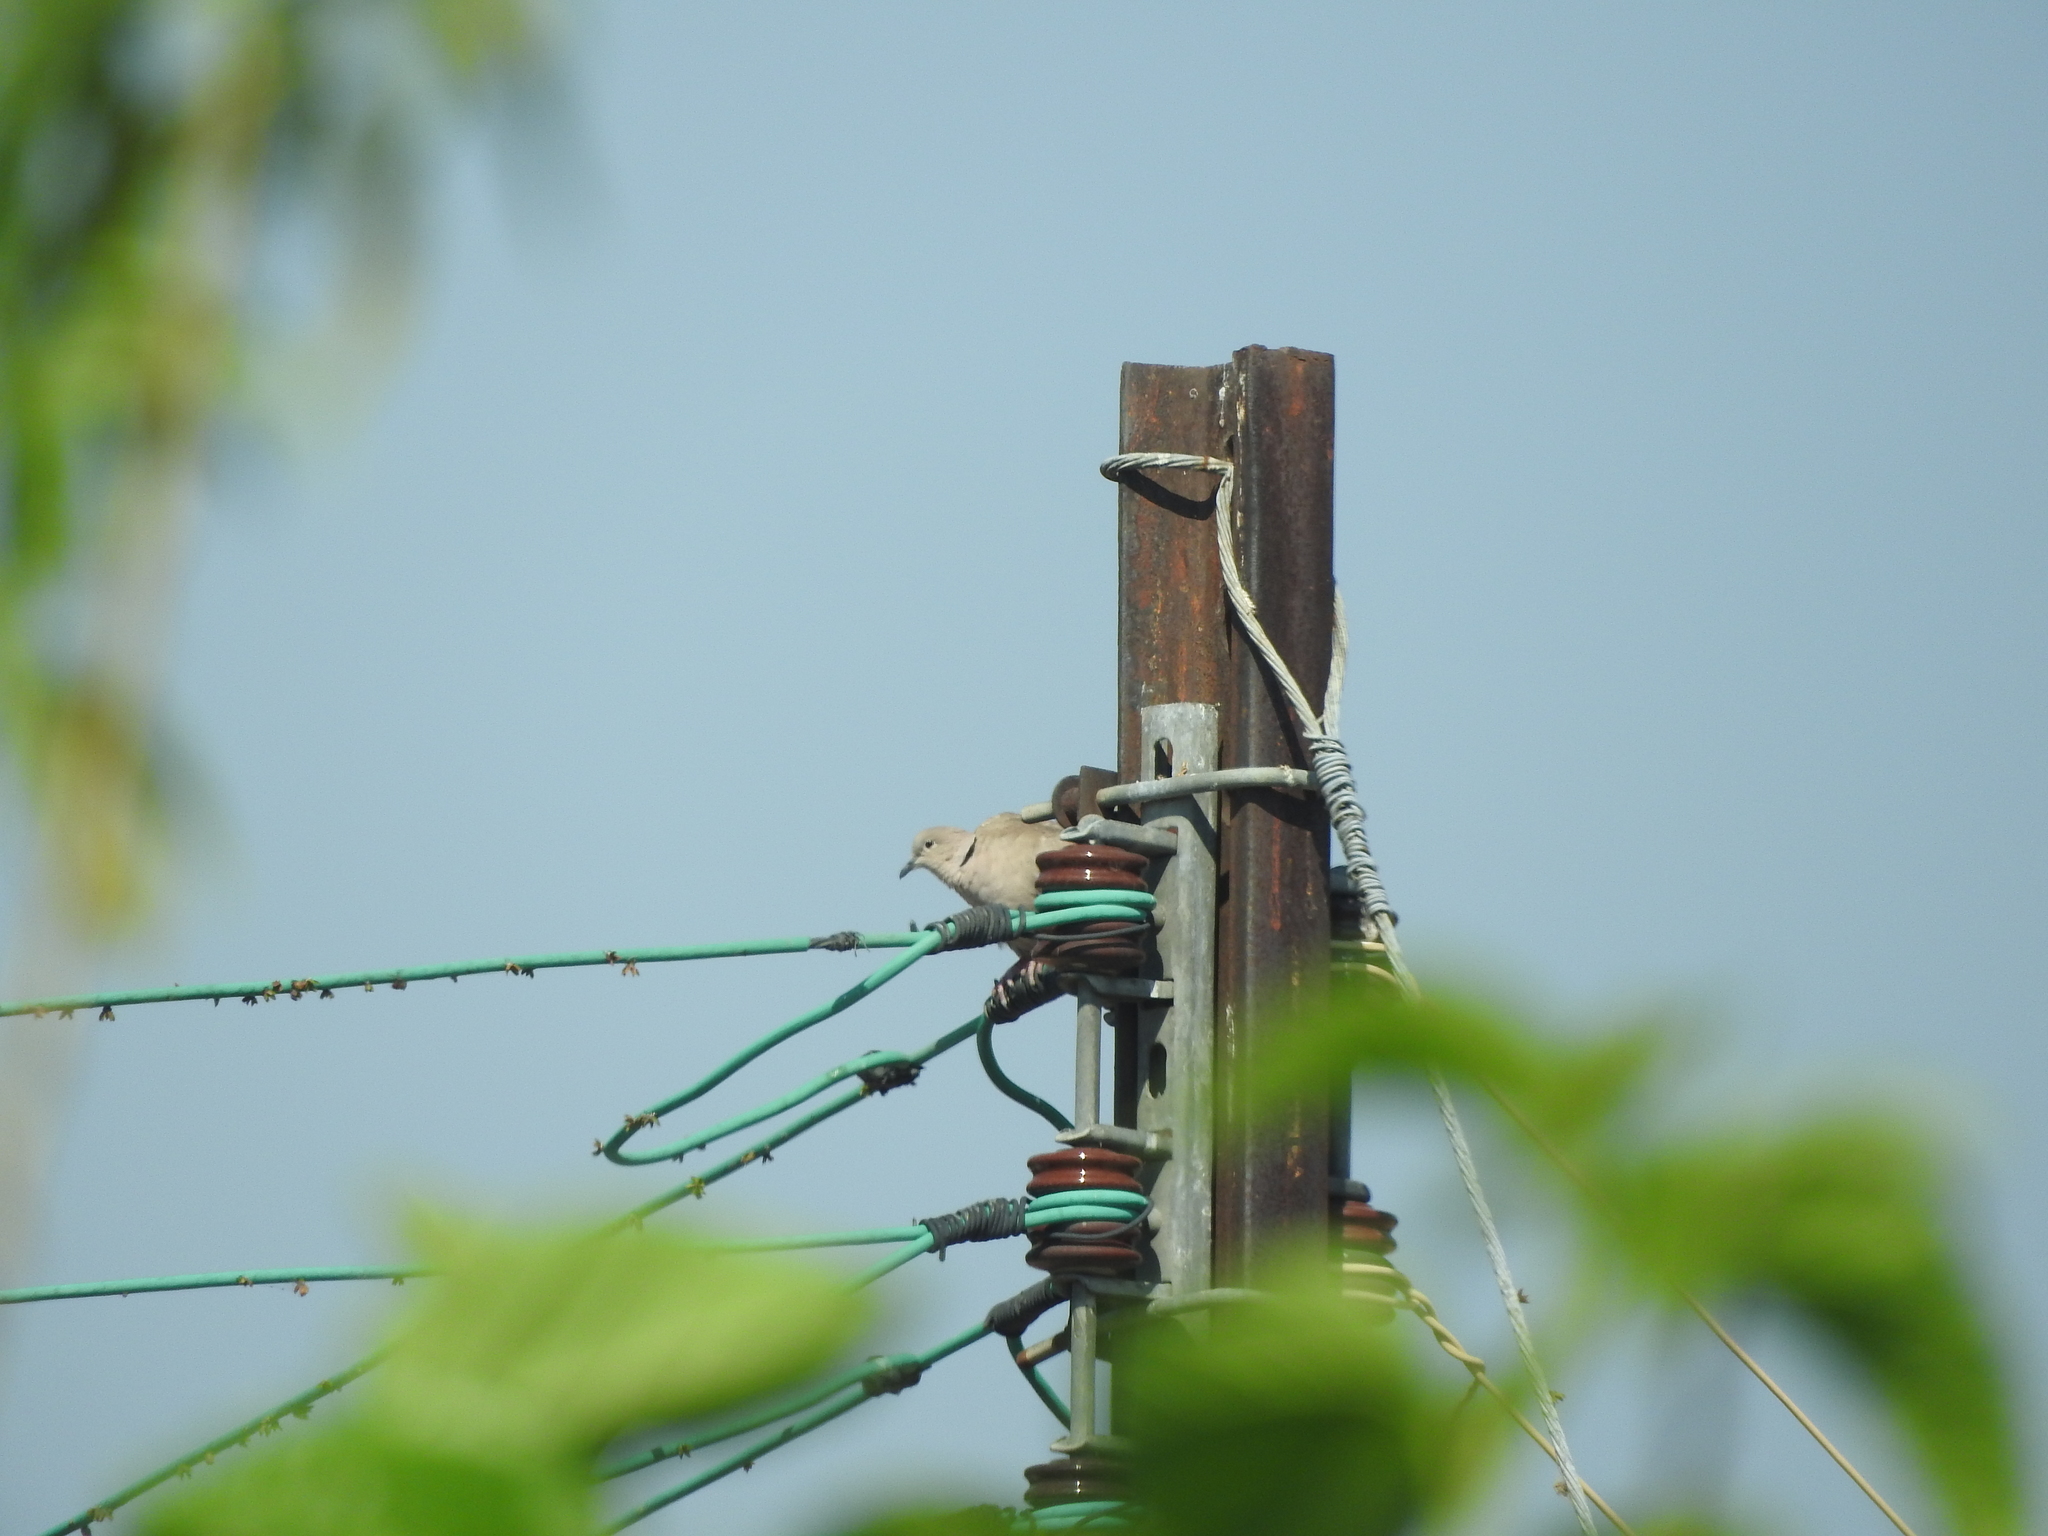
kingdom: Animalia
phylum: Chordata
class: Aves
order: Columbiformes
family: Columbidae
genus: Streptopelia
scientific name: Streptopelia decaocto
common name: Eurasian collared dove
